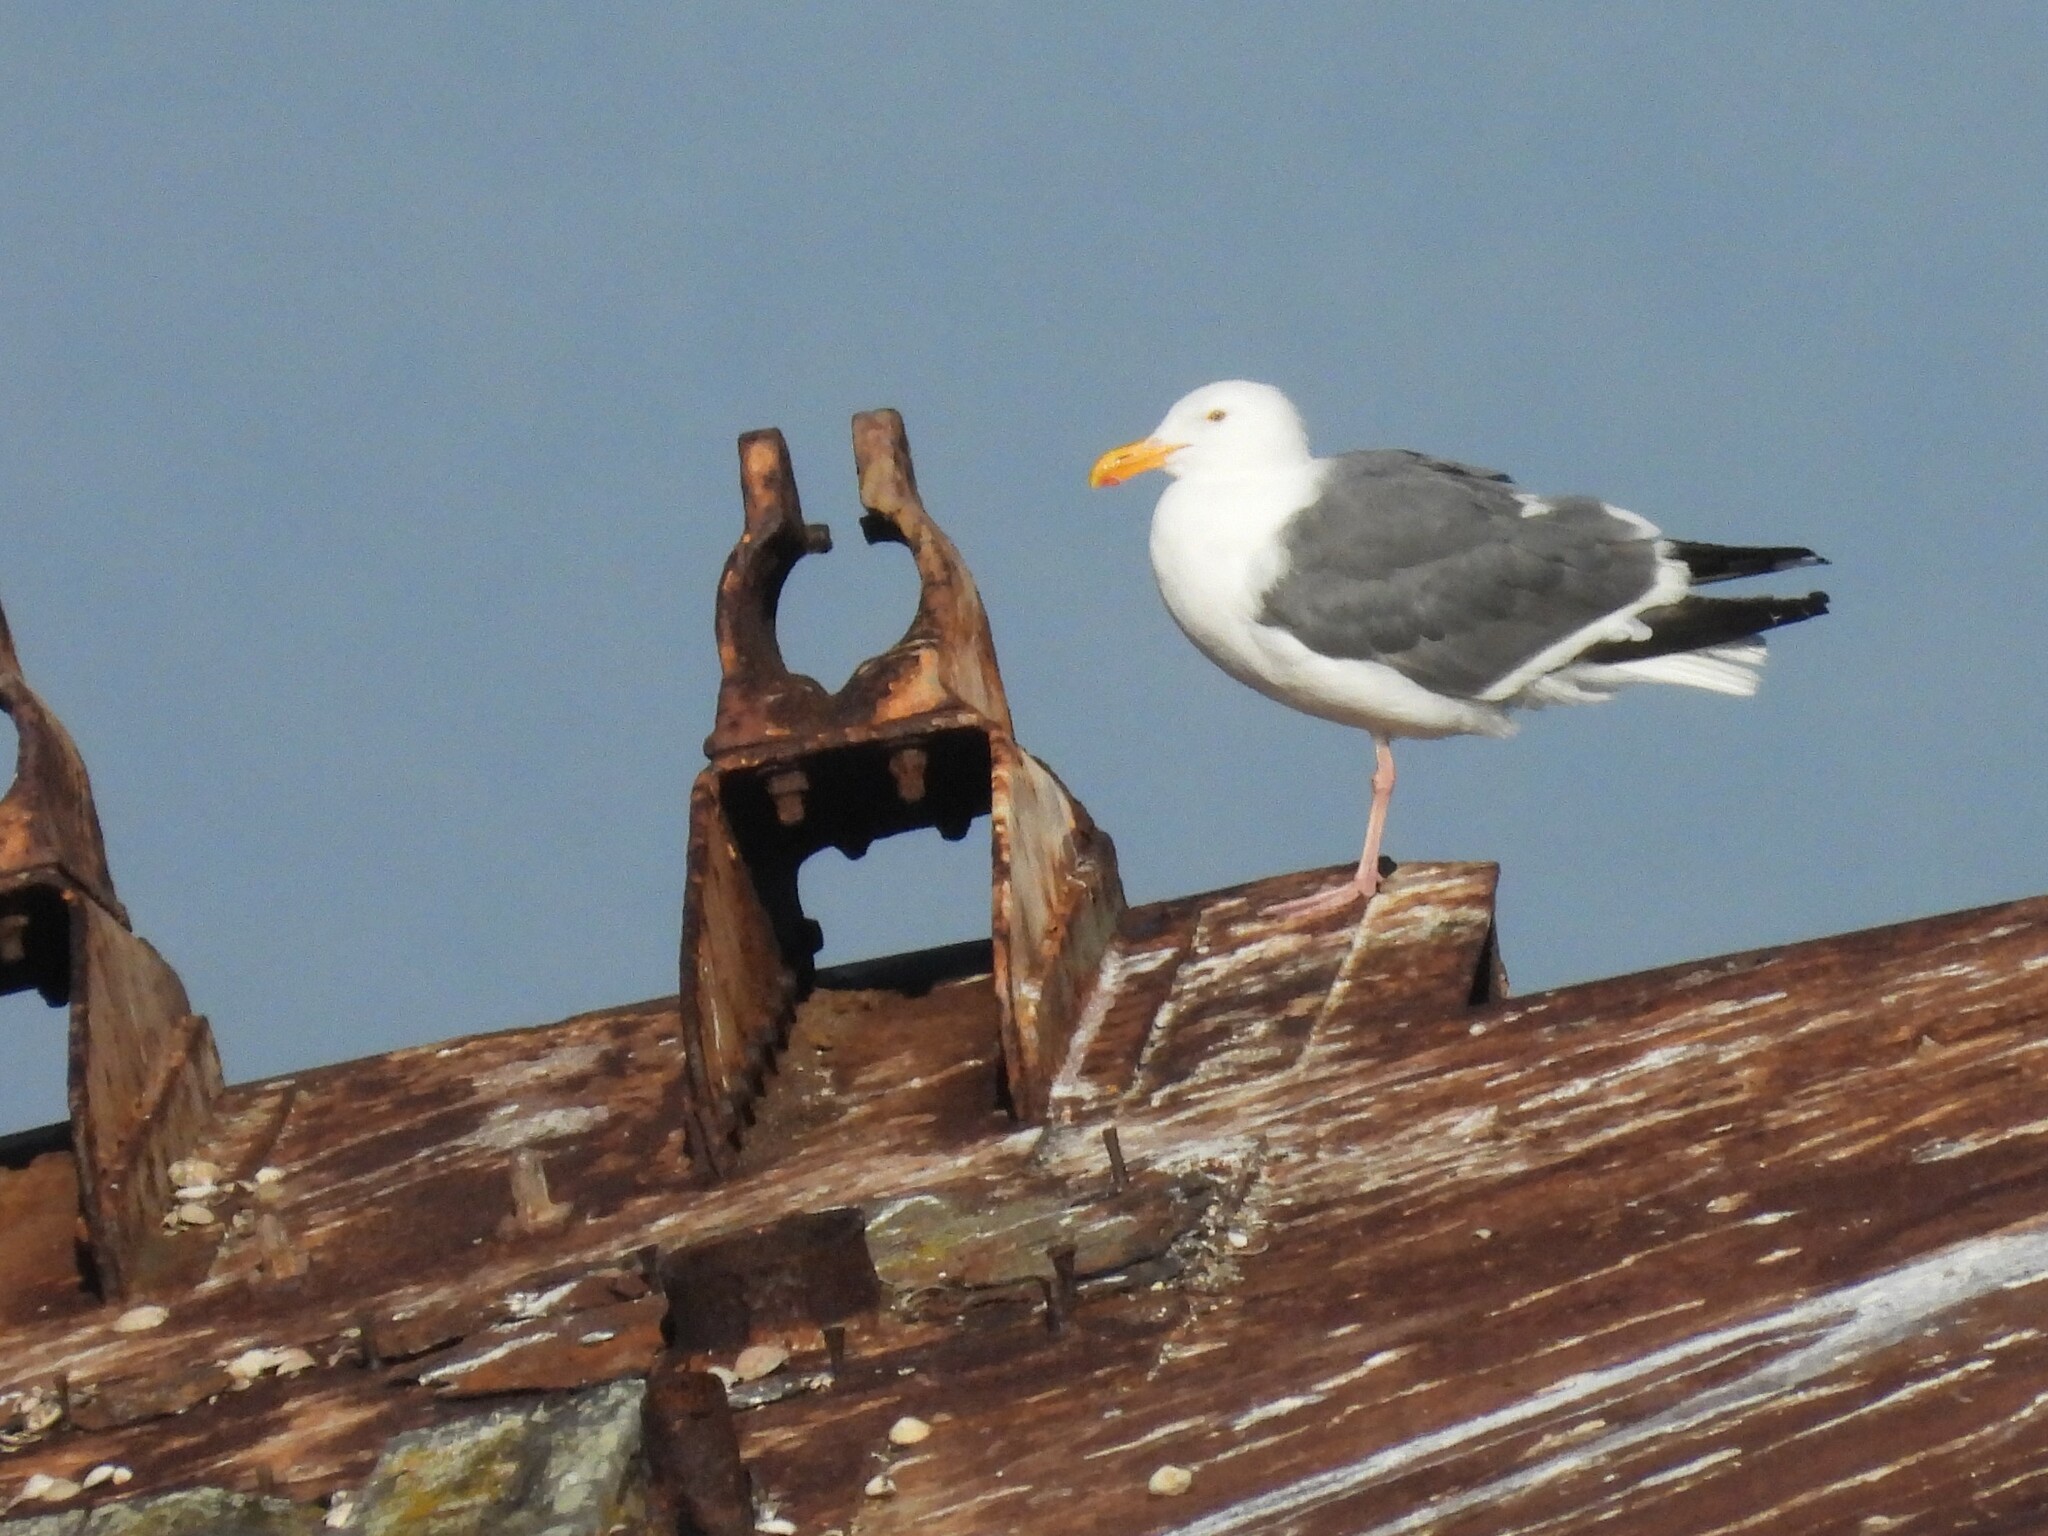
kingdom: Animalia
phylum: Chordata
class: Aves
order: Charadriiformes
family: Laridae
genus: Larus
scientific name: Larus occidentalis
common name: Western gull
